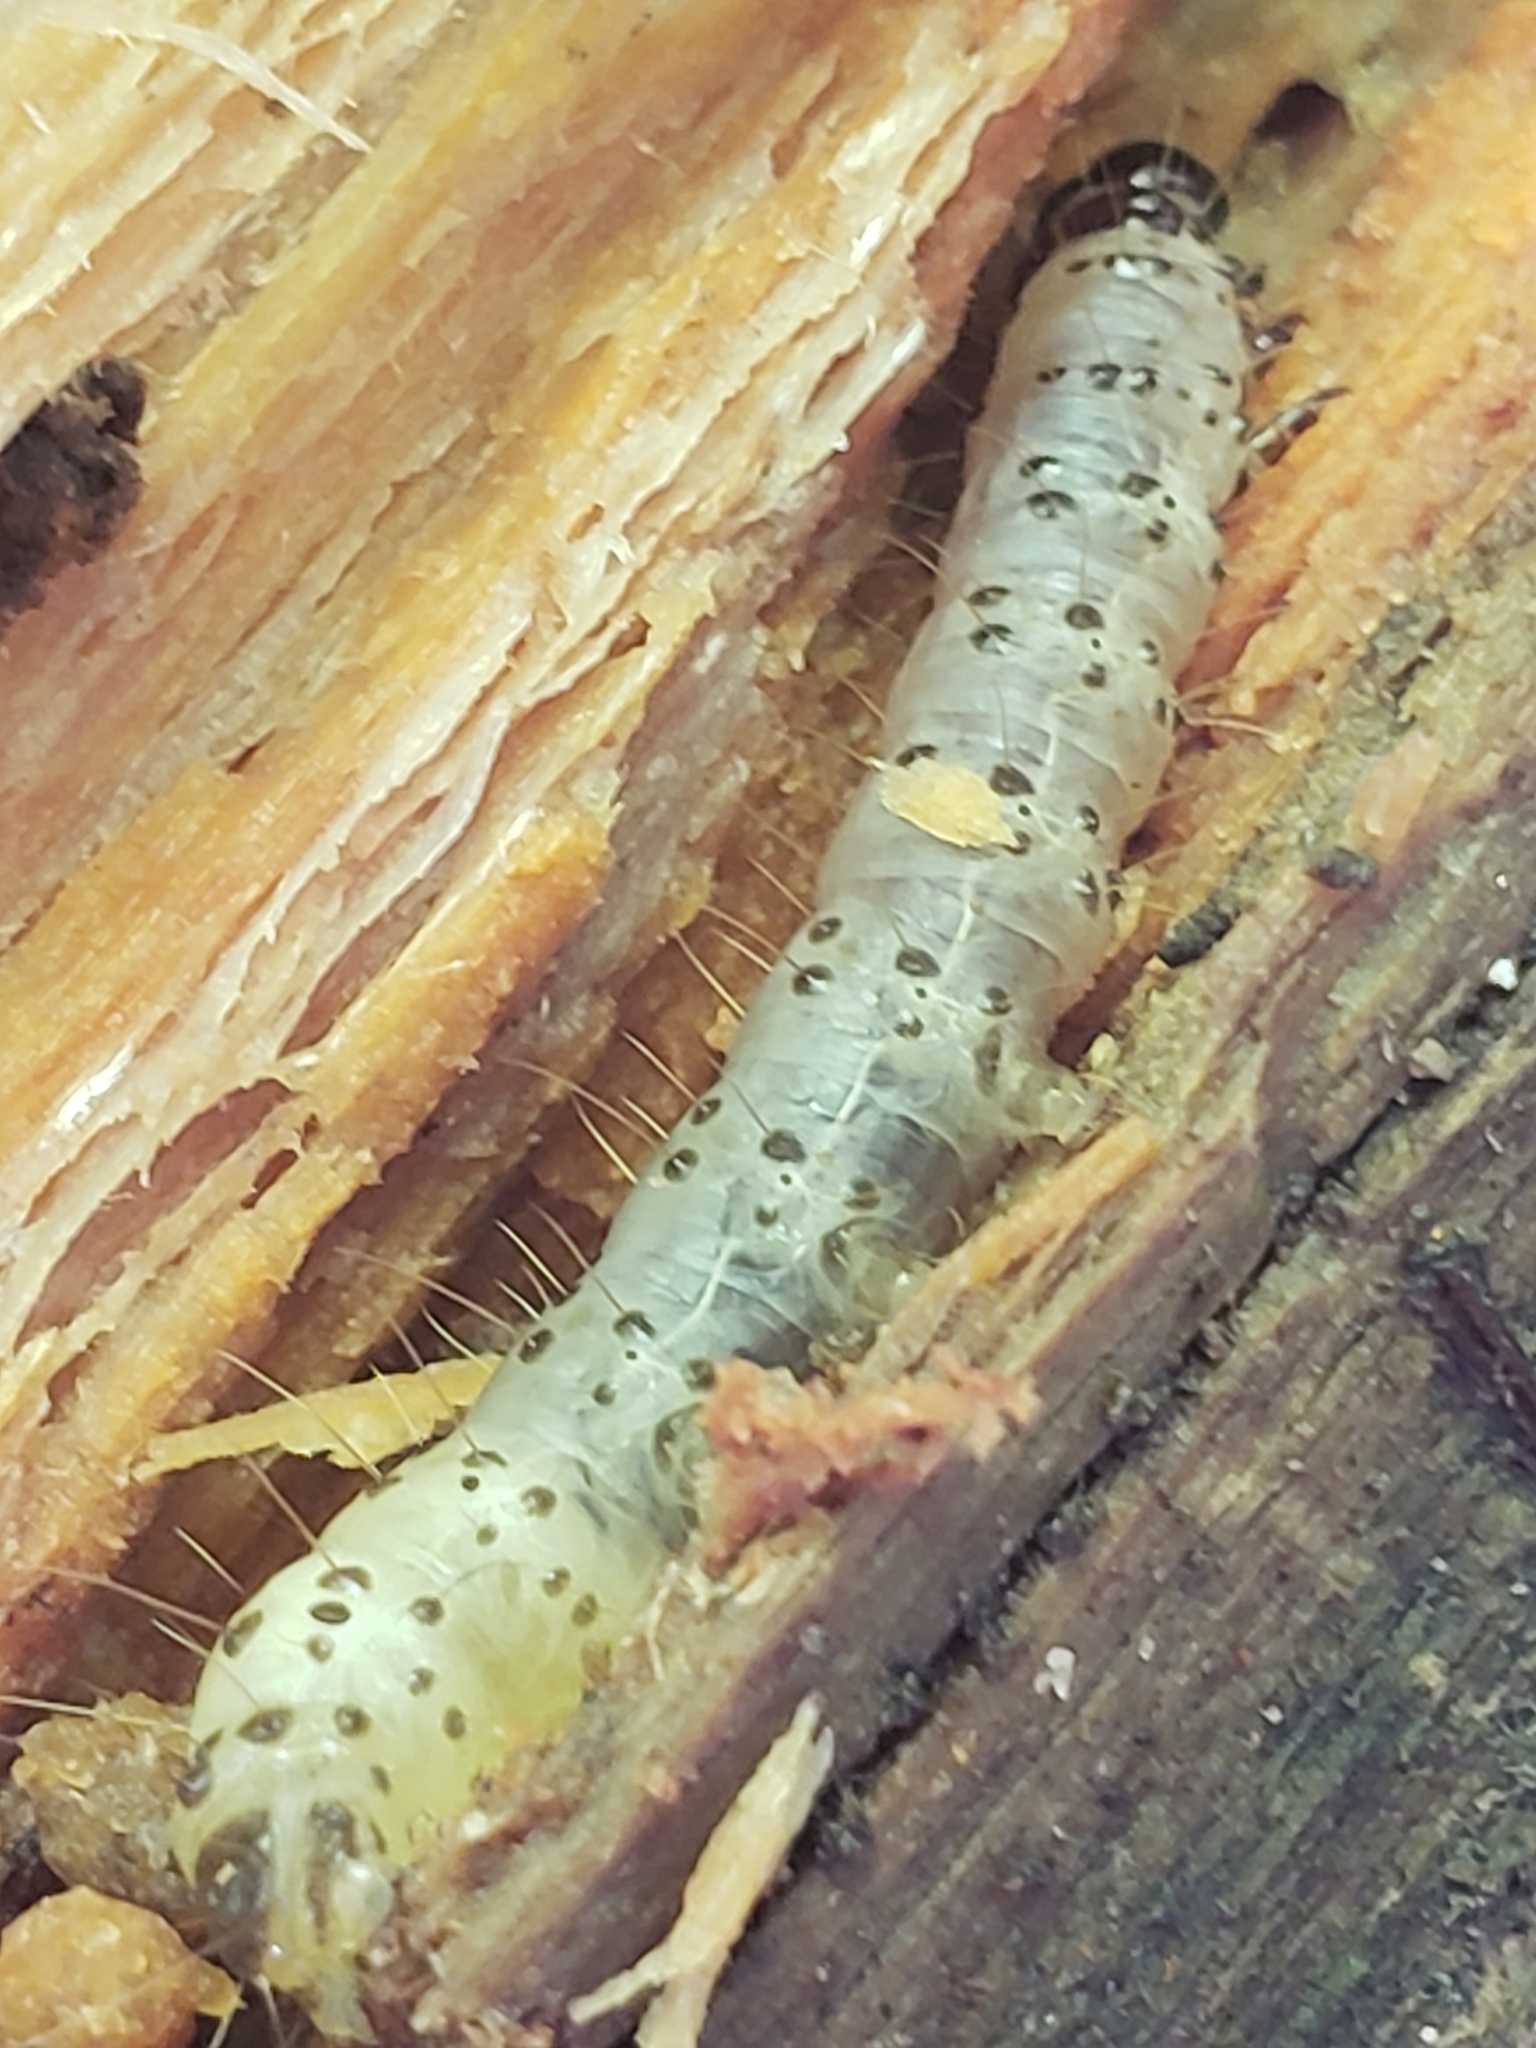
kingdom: Animalia
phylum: Arthropoda
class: Insecta
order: Lepidoptera
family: Erebidae
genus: Scolecocampa
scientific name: Scolecocampa liburna
